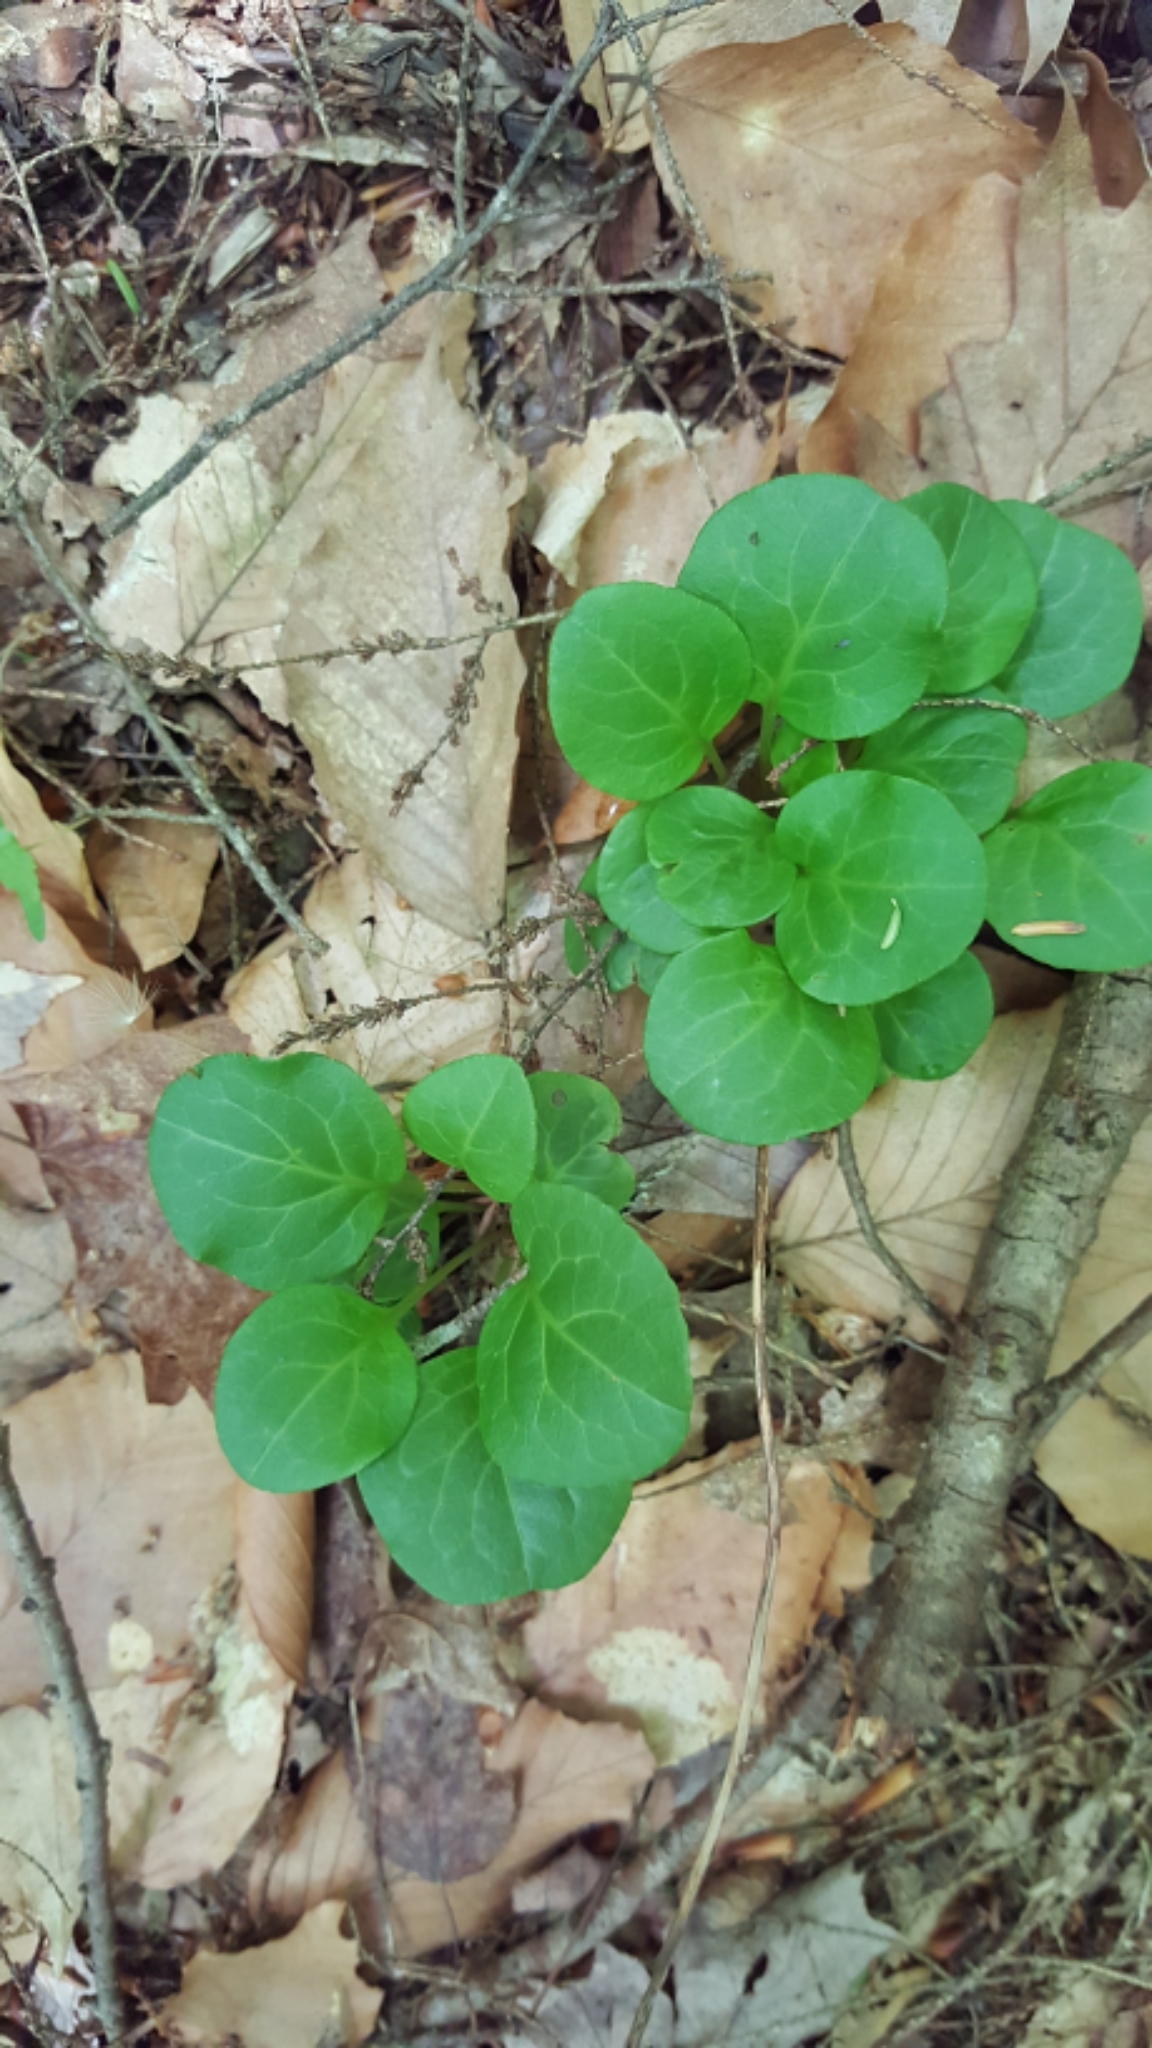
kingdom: Plantae
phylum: Tracheophyta
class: Magnoliopsida
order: Ericales
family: Ericaceae
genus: Pyrola
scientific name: Pyrola americana
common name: American wintergreen
